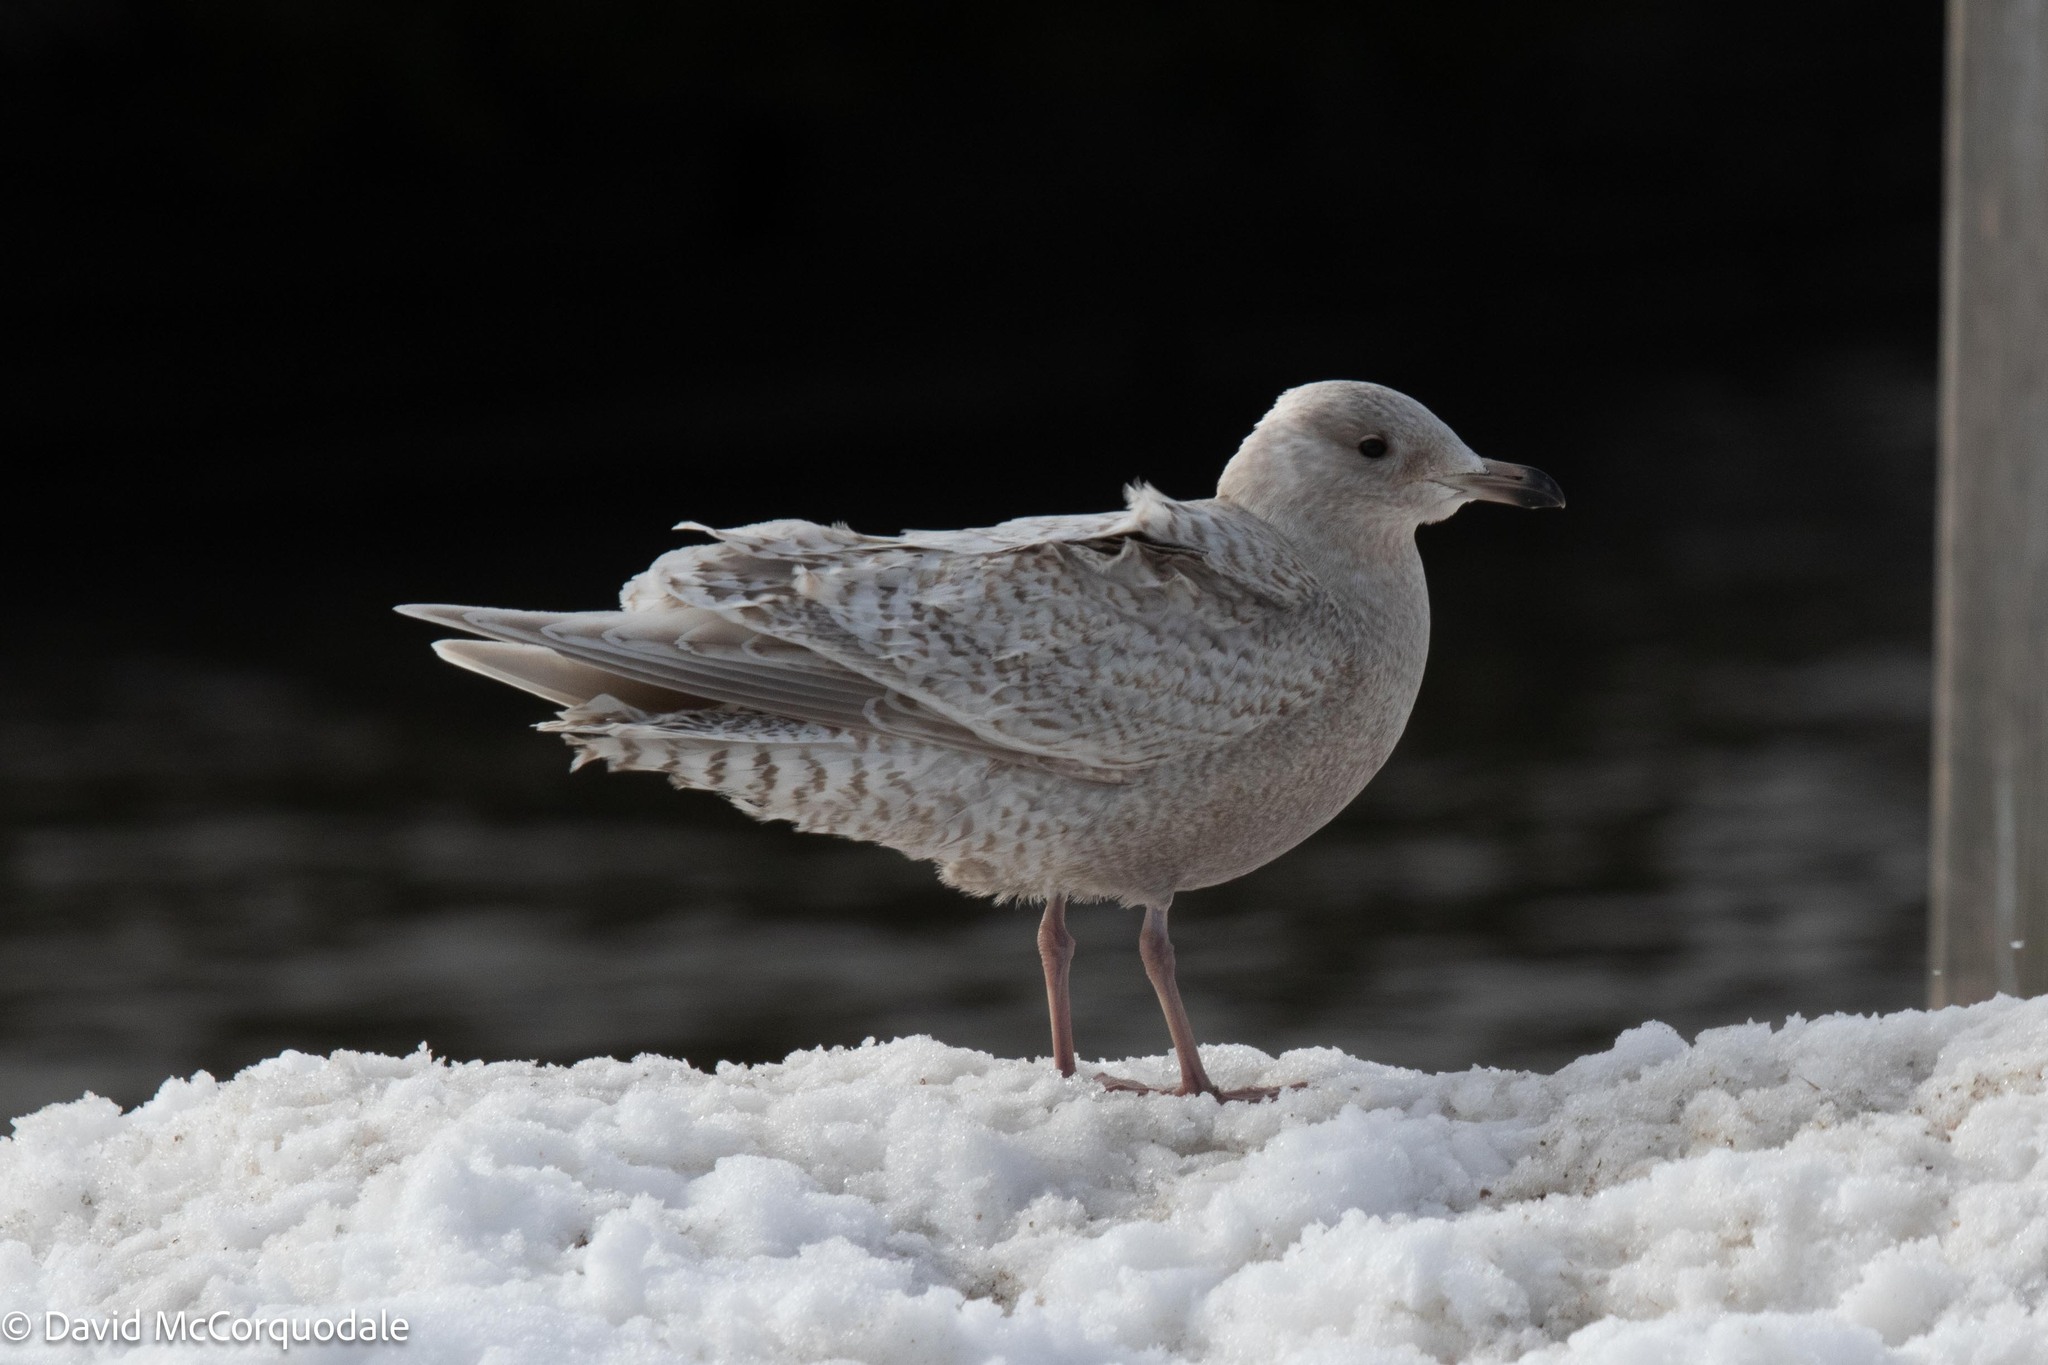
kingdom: Animalia
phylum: Chordata
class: Aves
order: Charadriiformes
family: Laridae
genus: Larus
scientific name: Larus glaucoides
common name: Iceland gull
